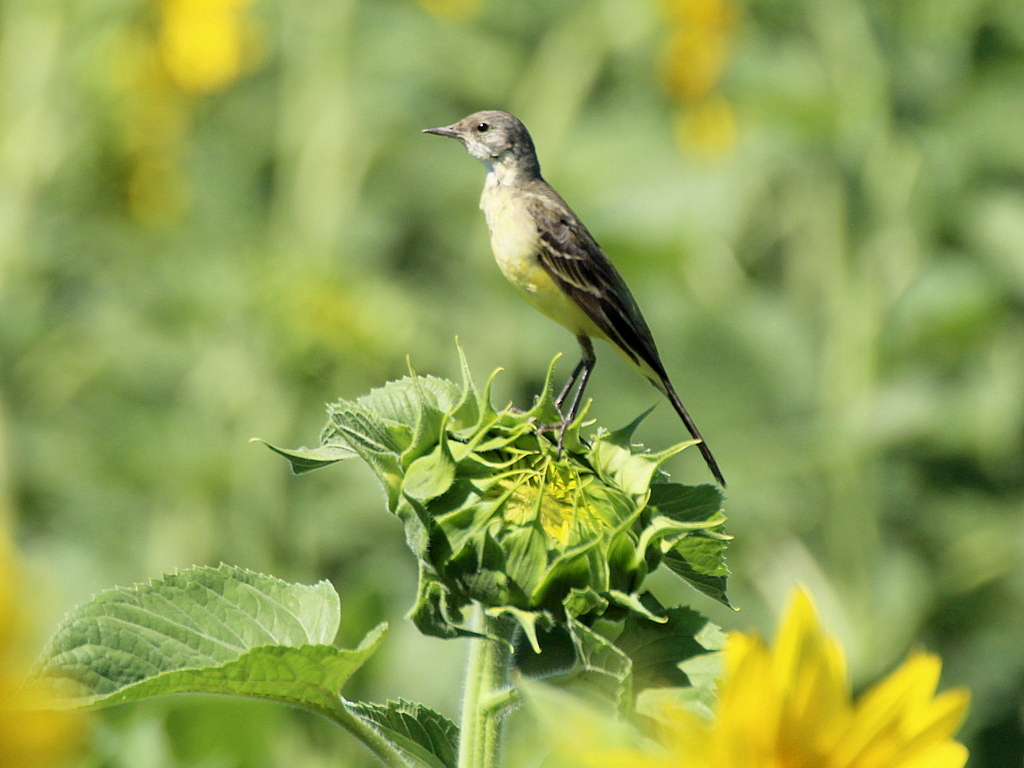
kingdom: Animalia
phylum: Chordata
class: Aves
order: Passeriformes
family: Motacillidae
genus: Motacilla
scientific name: Motacilla flava
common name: Western yellow wagtail
